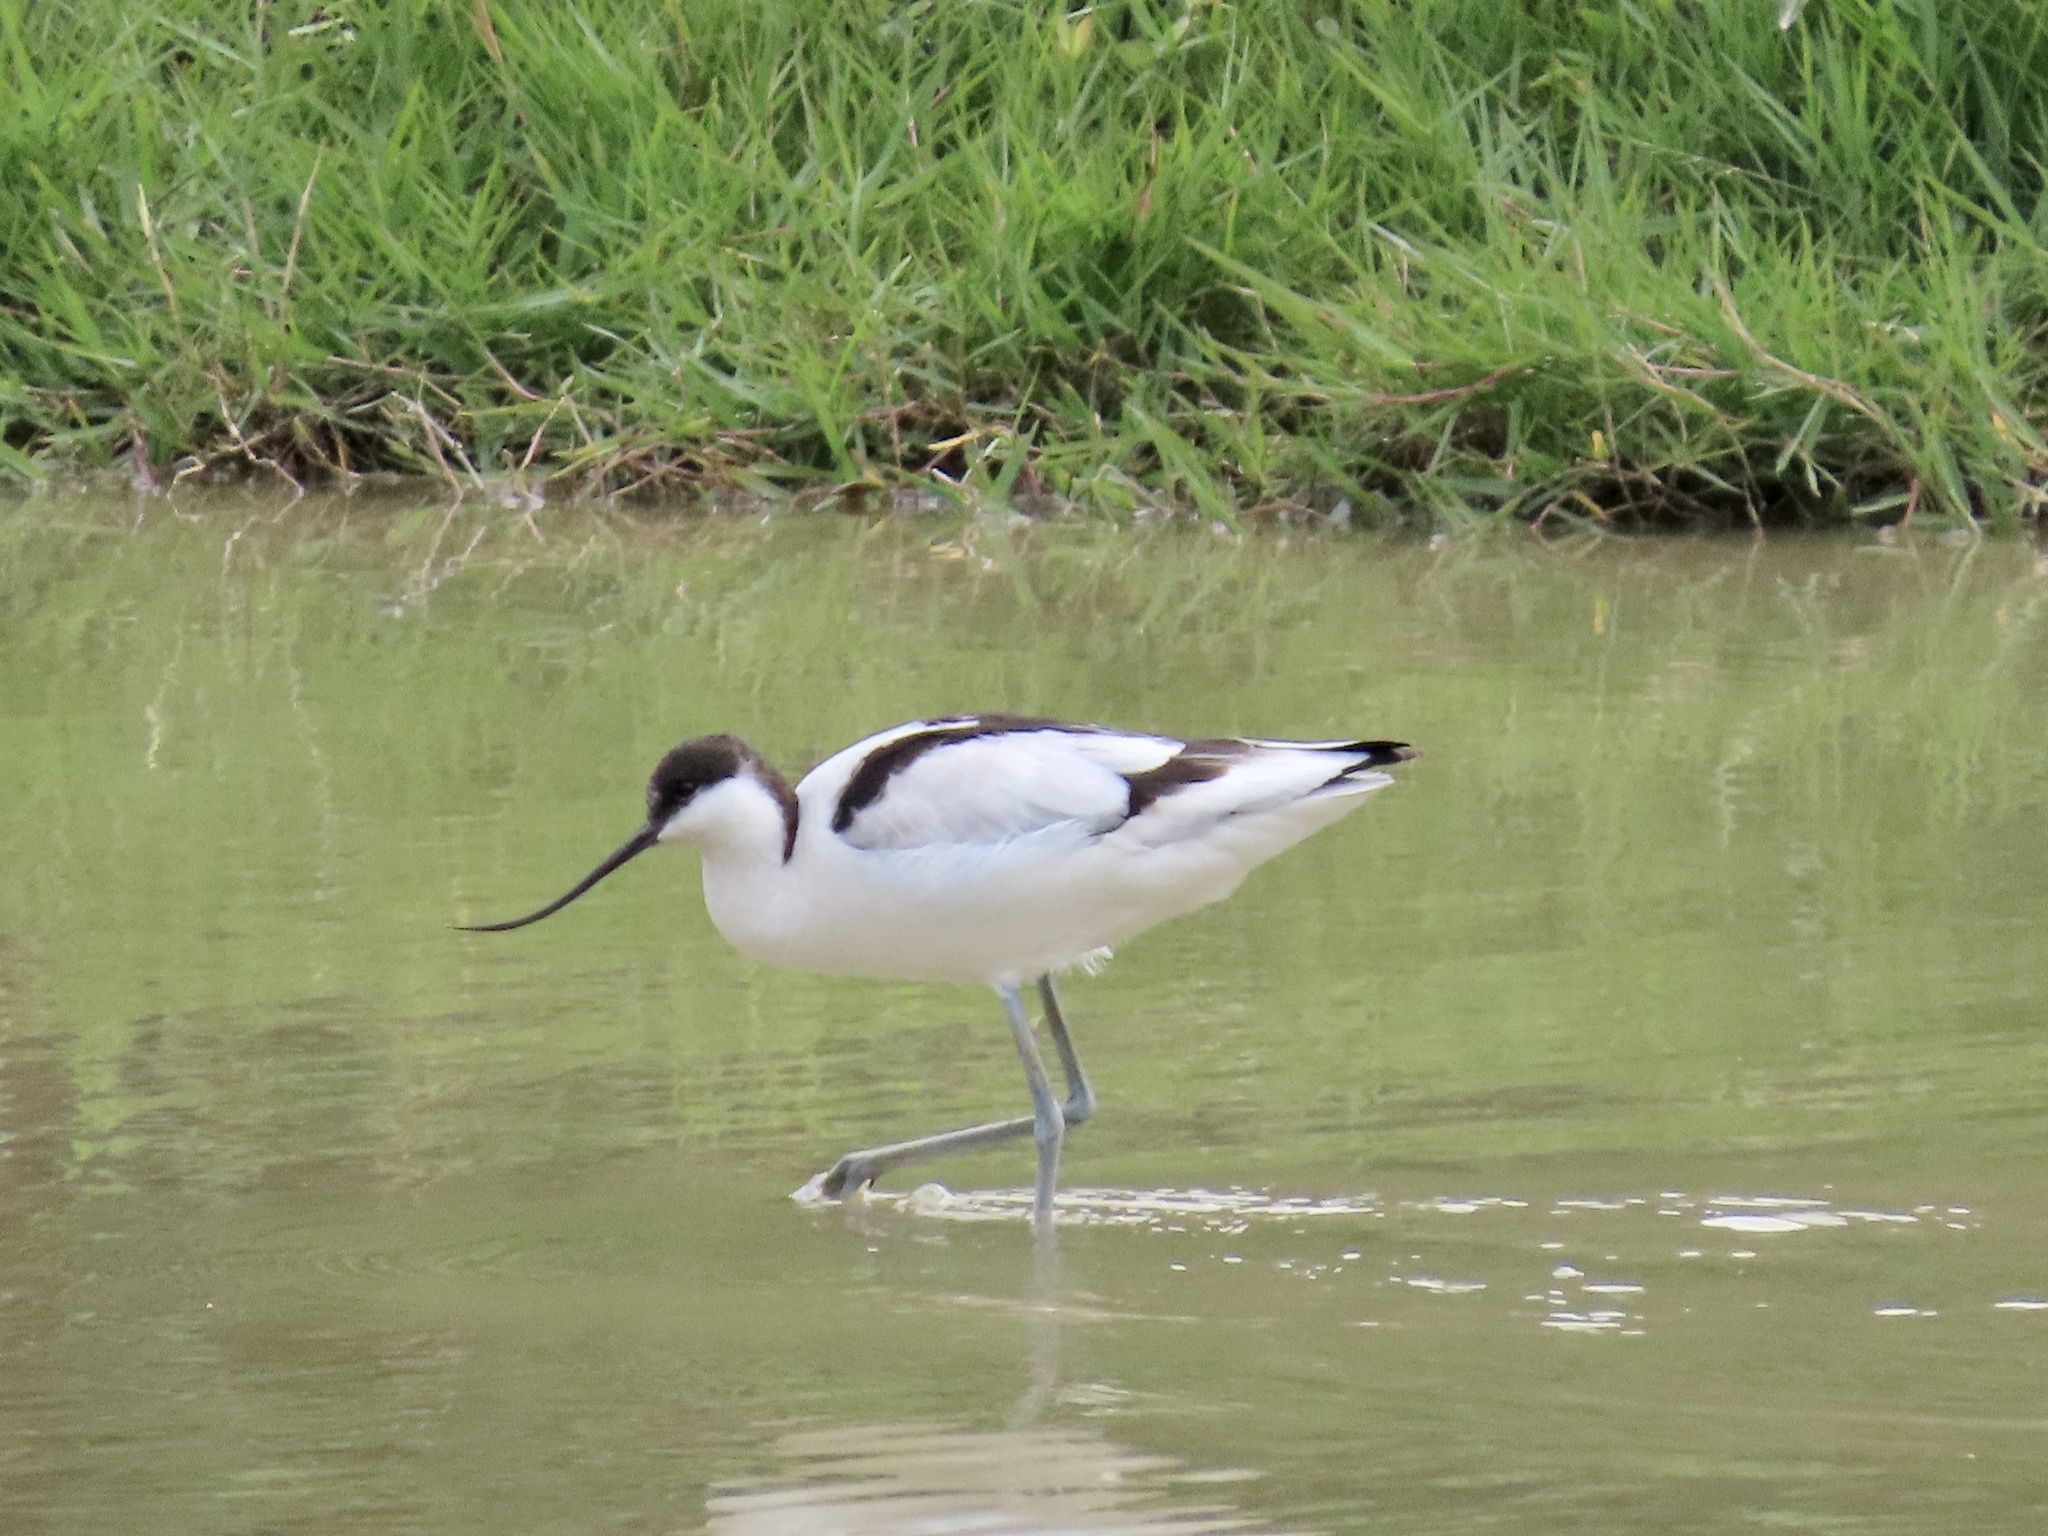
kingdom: Animalia
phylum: Chordata
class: Aves
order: Charadriiformes
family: Recurvirostridae
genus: Recurvirostra
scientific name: Recurvirostra avosetta
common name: Pied avocet
